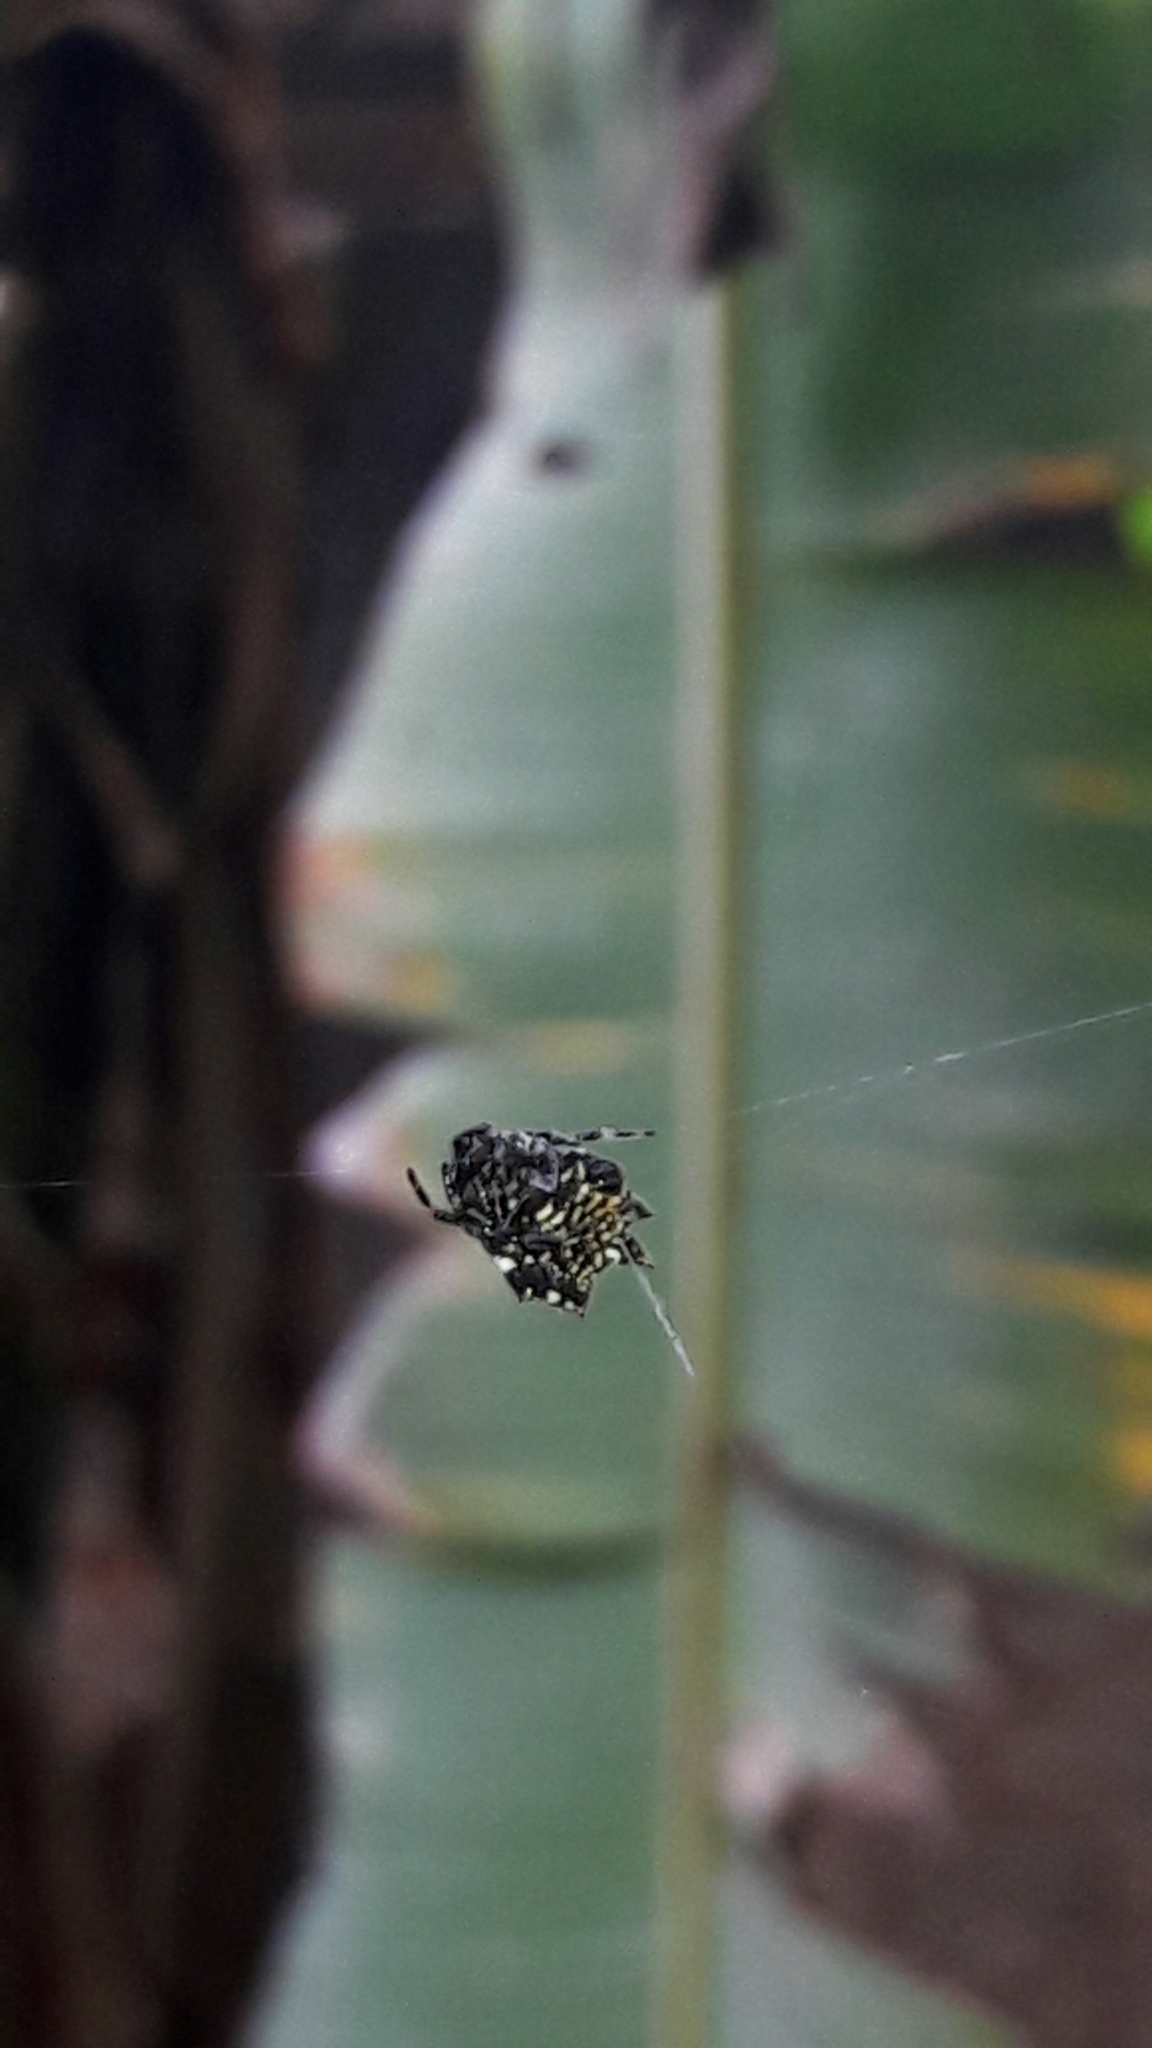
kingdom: Animalia
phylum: Arthropoda
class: Arachnida
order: Araneae
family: Araneidae
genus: Gasteracantha
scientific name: Gasteracantha cancriformis
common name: Orb weavers
